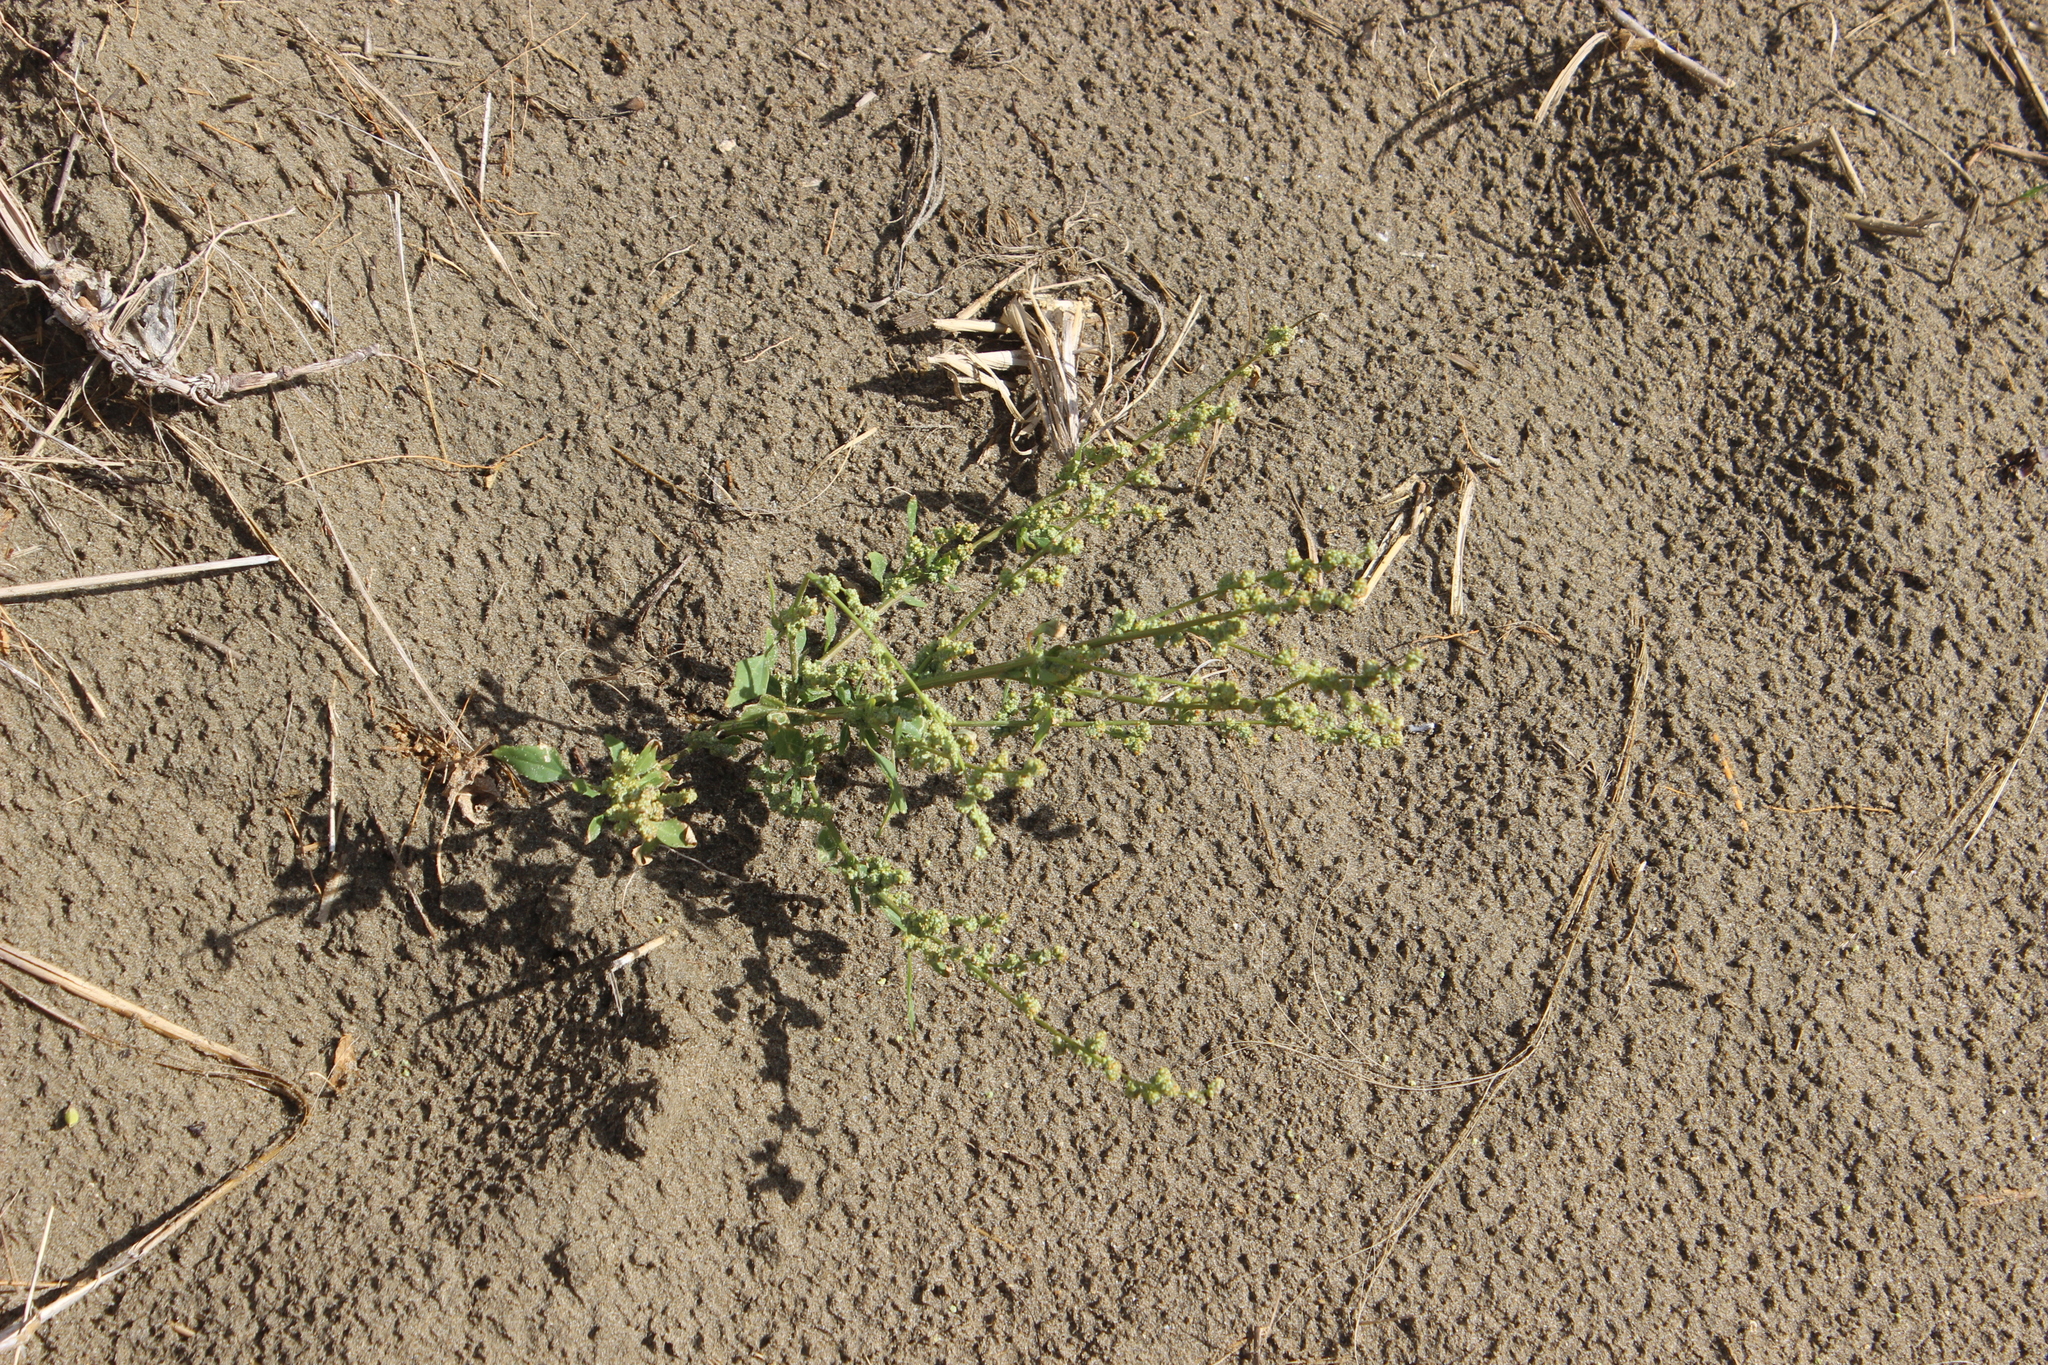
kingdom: Plantae
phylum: Tracheophyta
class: Magnoliopsida
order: Caryophyllales
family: Amaranthaceae
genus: Chenopodium
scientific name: Chenopodium album
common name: Fat-hen
